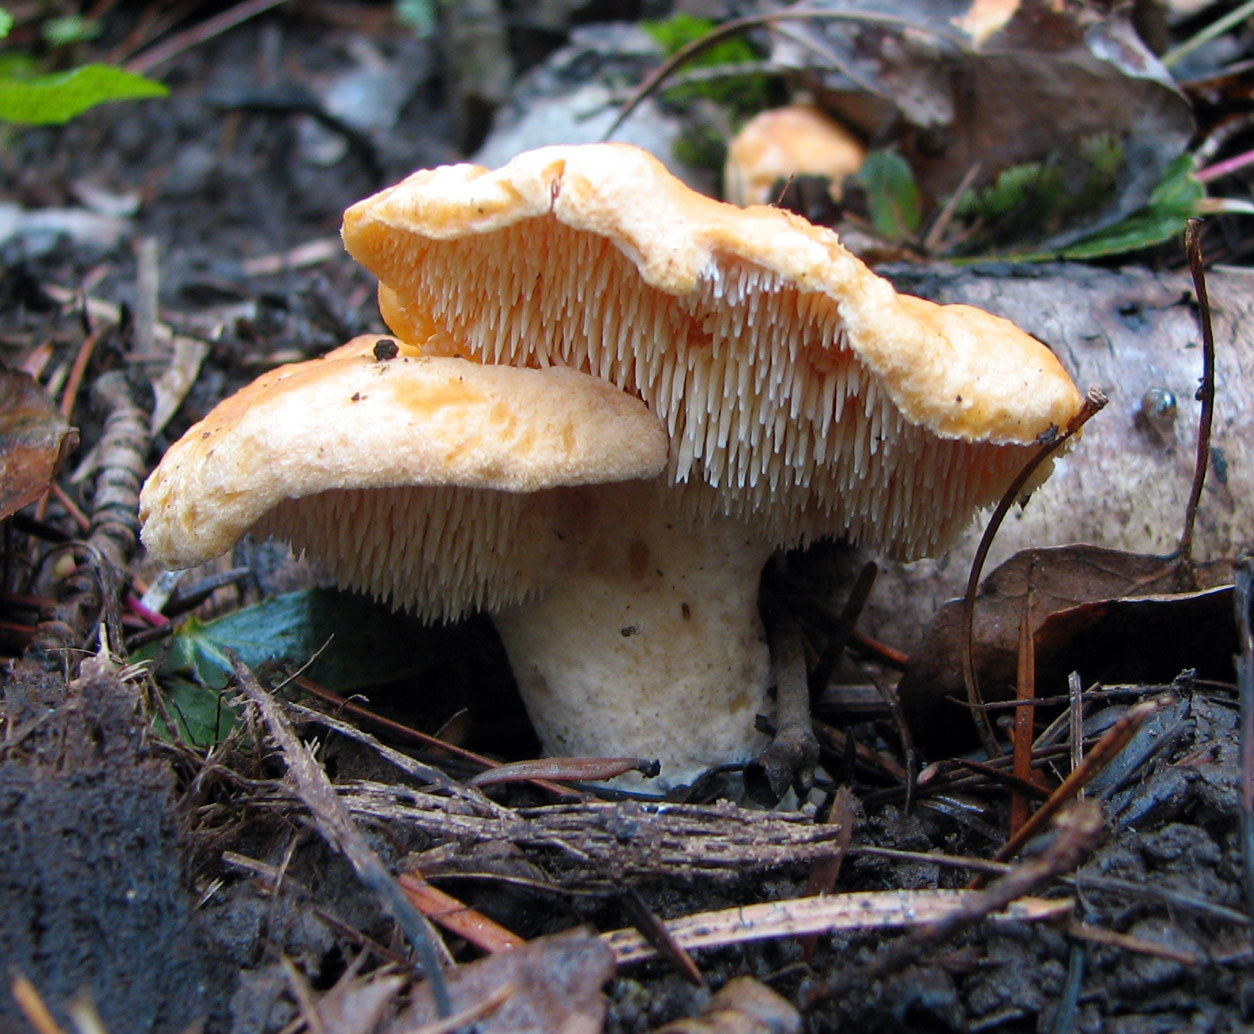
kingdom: Fungi
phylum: Basidiomycota
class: Agaricomycetes
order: Cantharellales
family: Hydnaceae
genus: Hydnum
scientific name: Hydnum melitosarx
